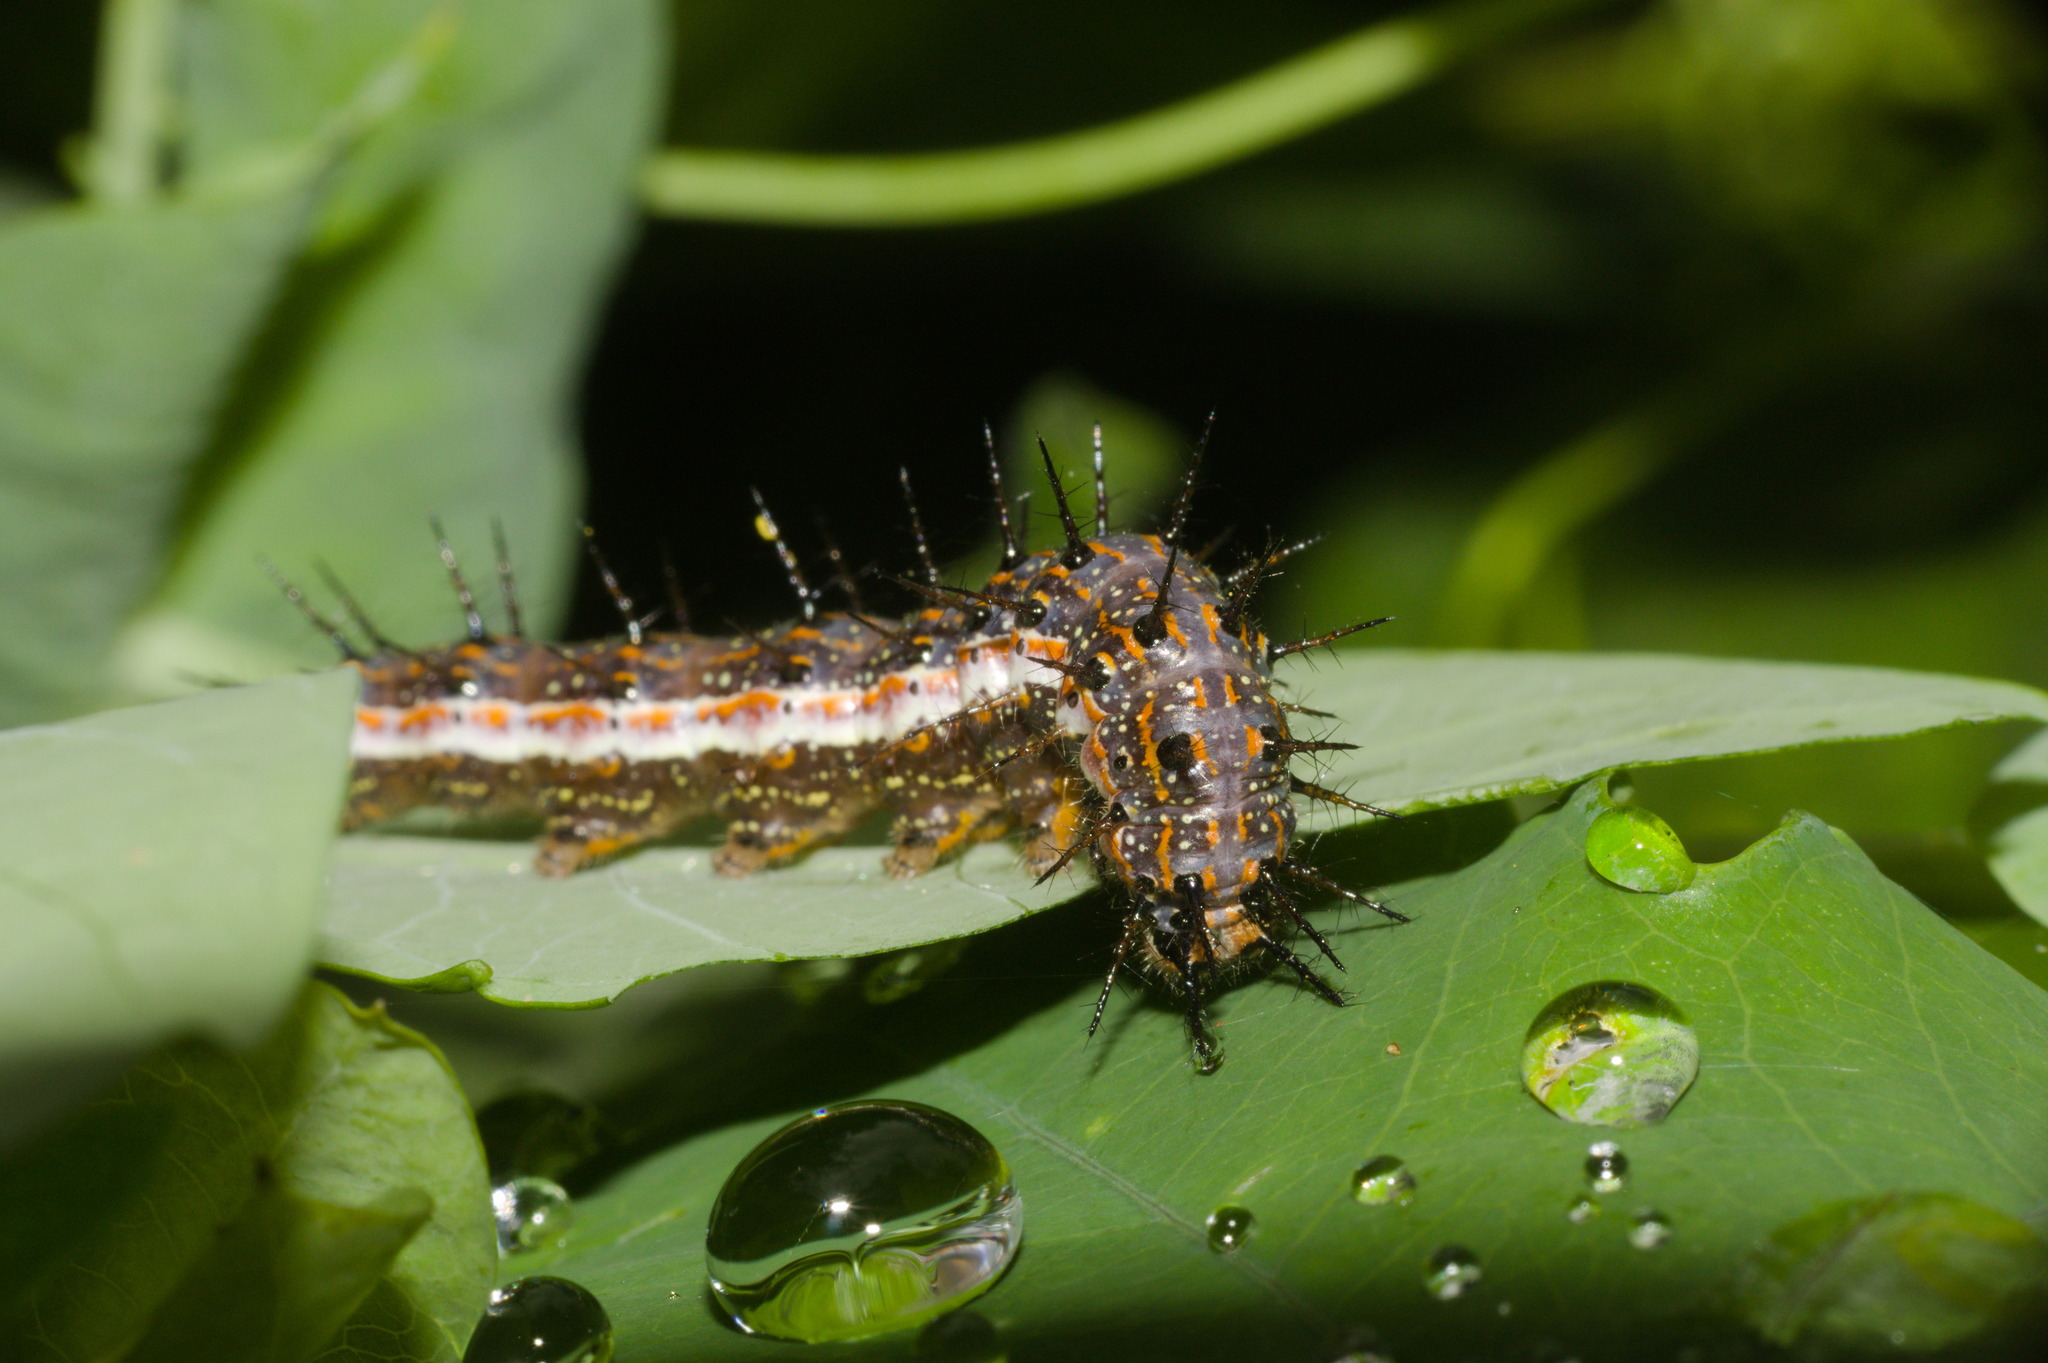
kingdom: Animalia
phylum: Arthropoda
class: Insecta
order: Lepidoptera
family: Nymphalidae
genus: Dione
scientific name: Dione vanillae
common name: Gulf fritillary
